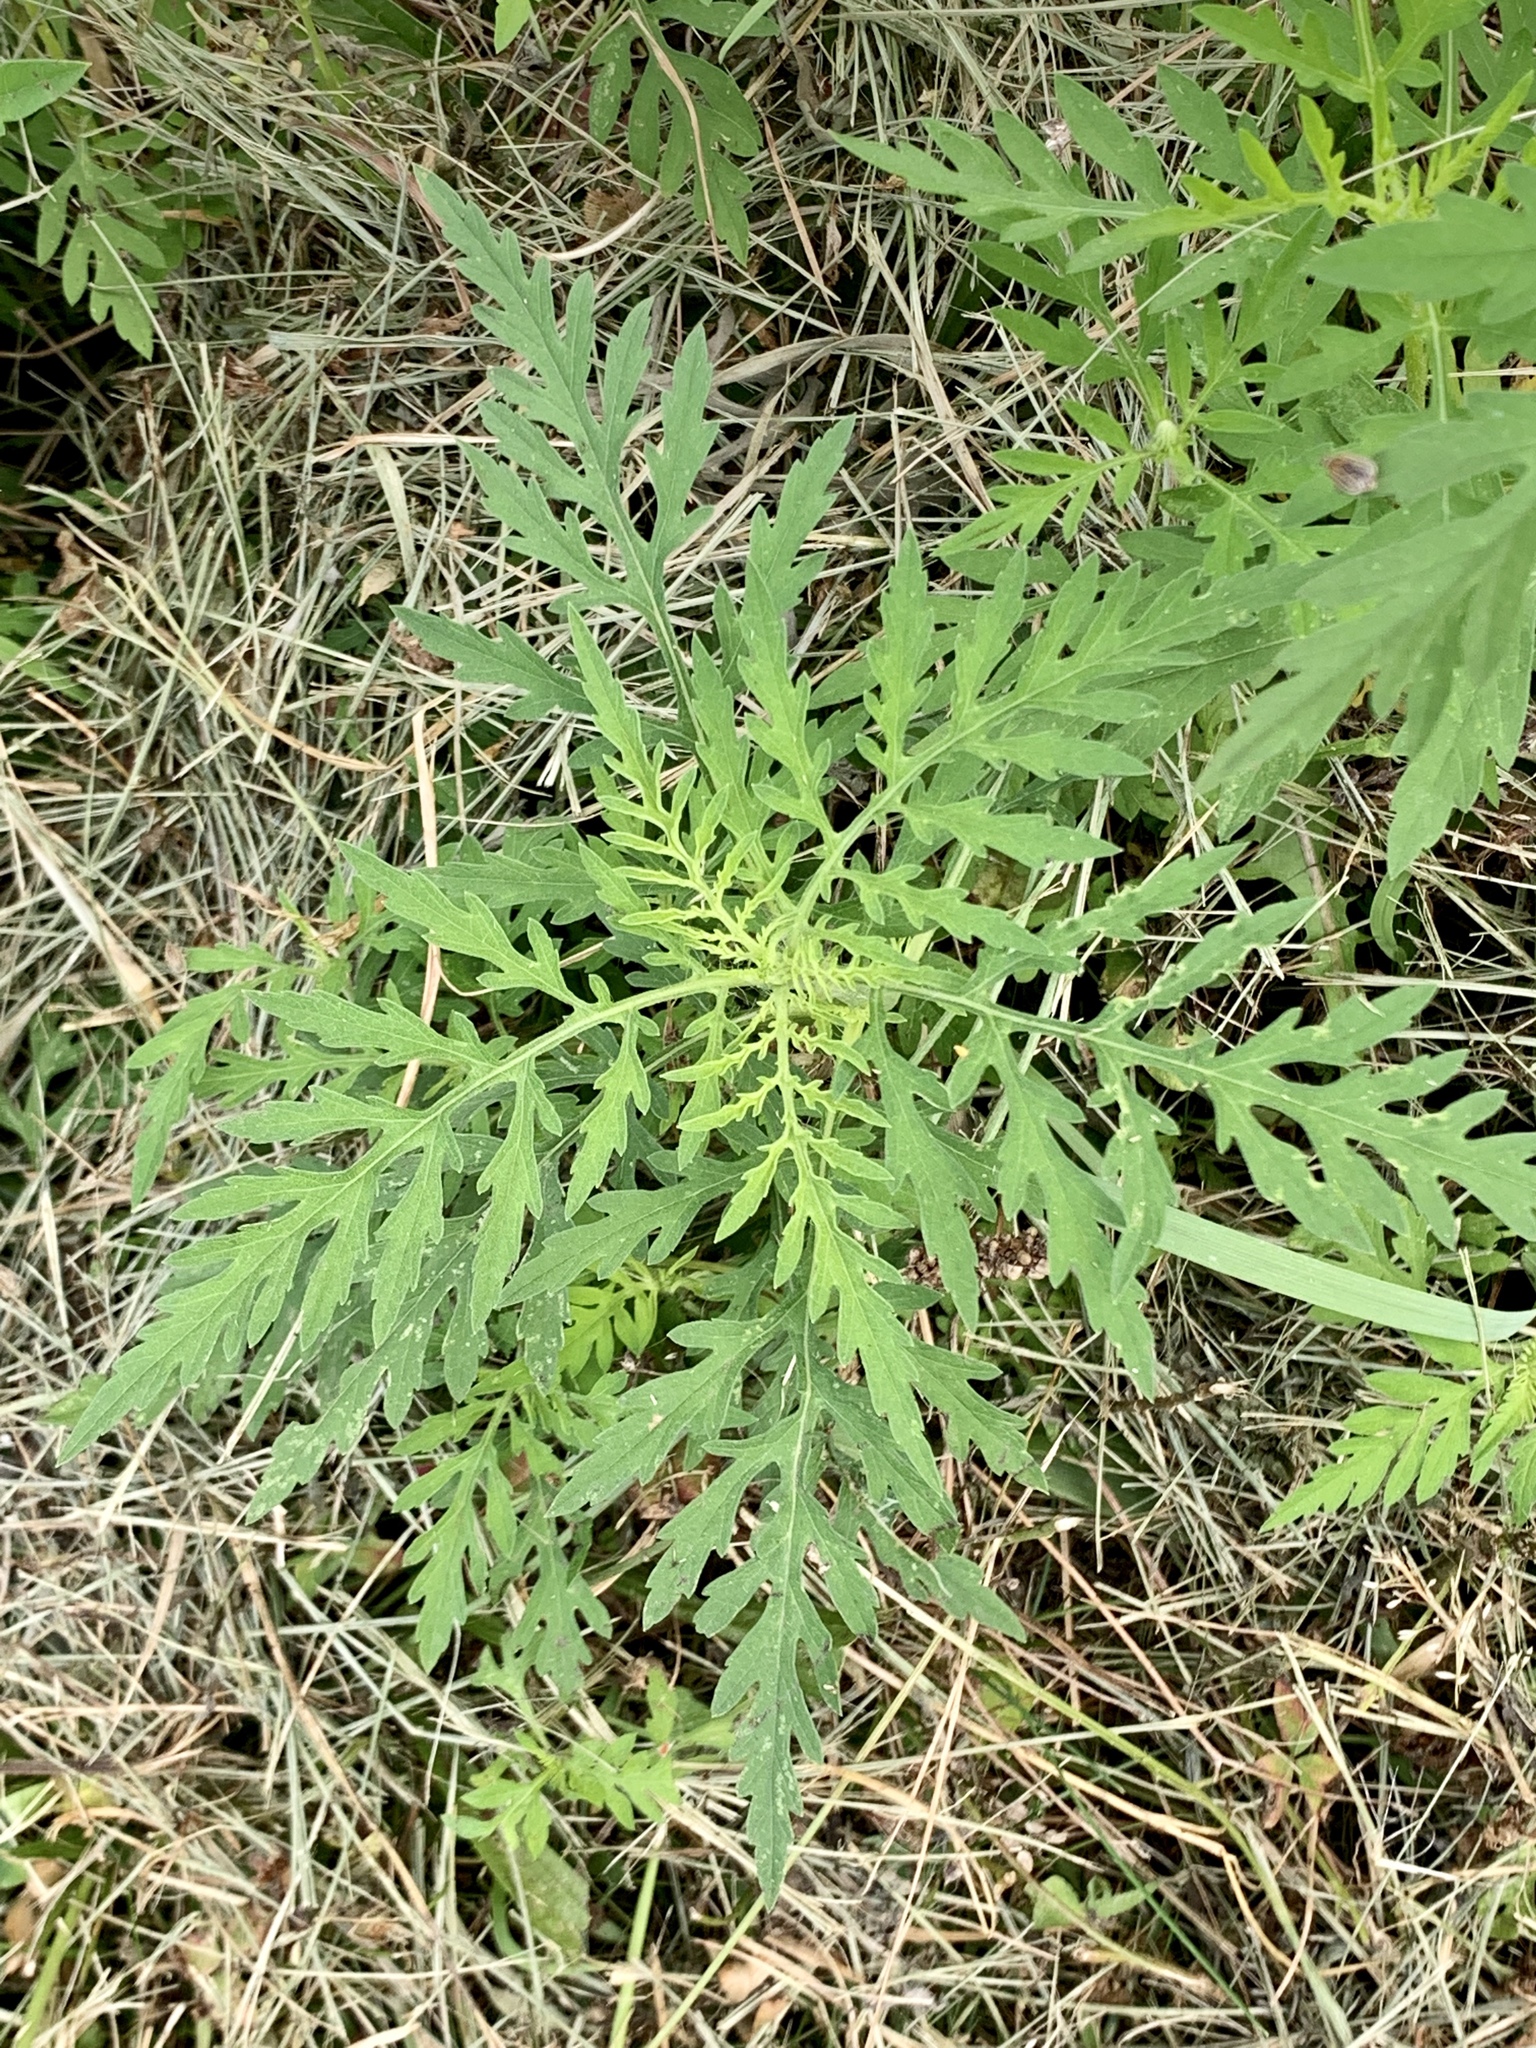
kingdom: Plantae
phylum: Tracheophyta
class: Magnoliopsida
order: Asterales
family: Asteraceae
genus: Ambrosia
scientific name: Ambrosia artemisiifolia
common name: Annual ragweed
